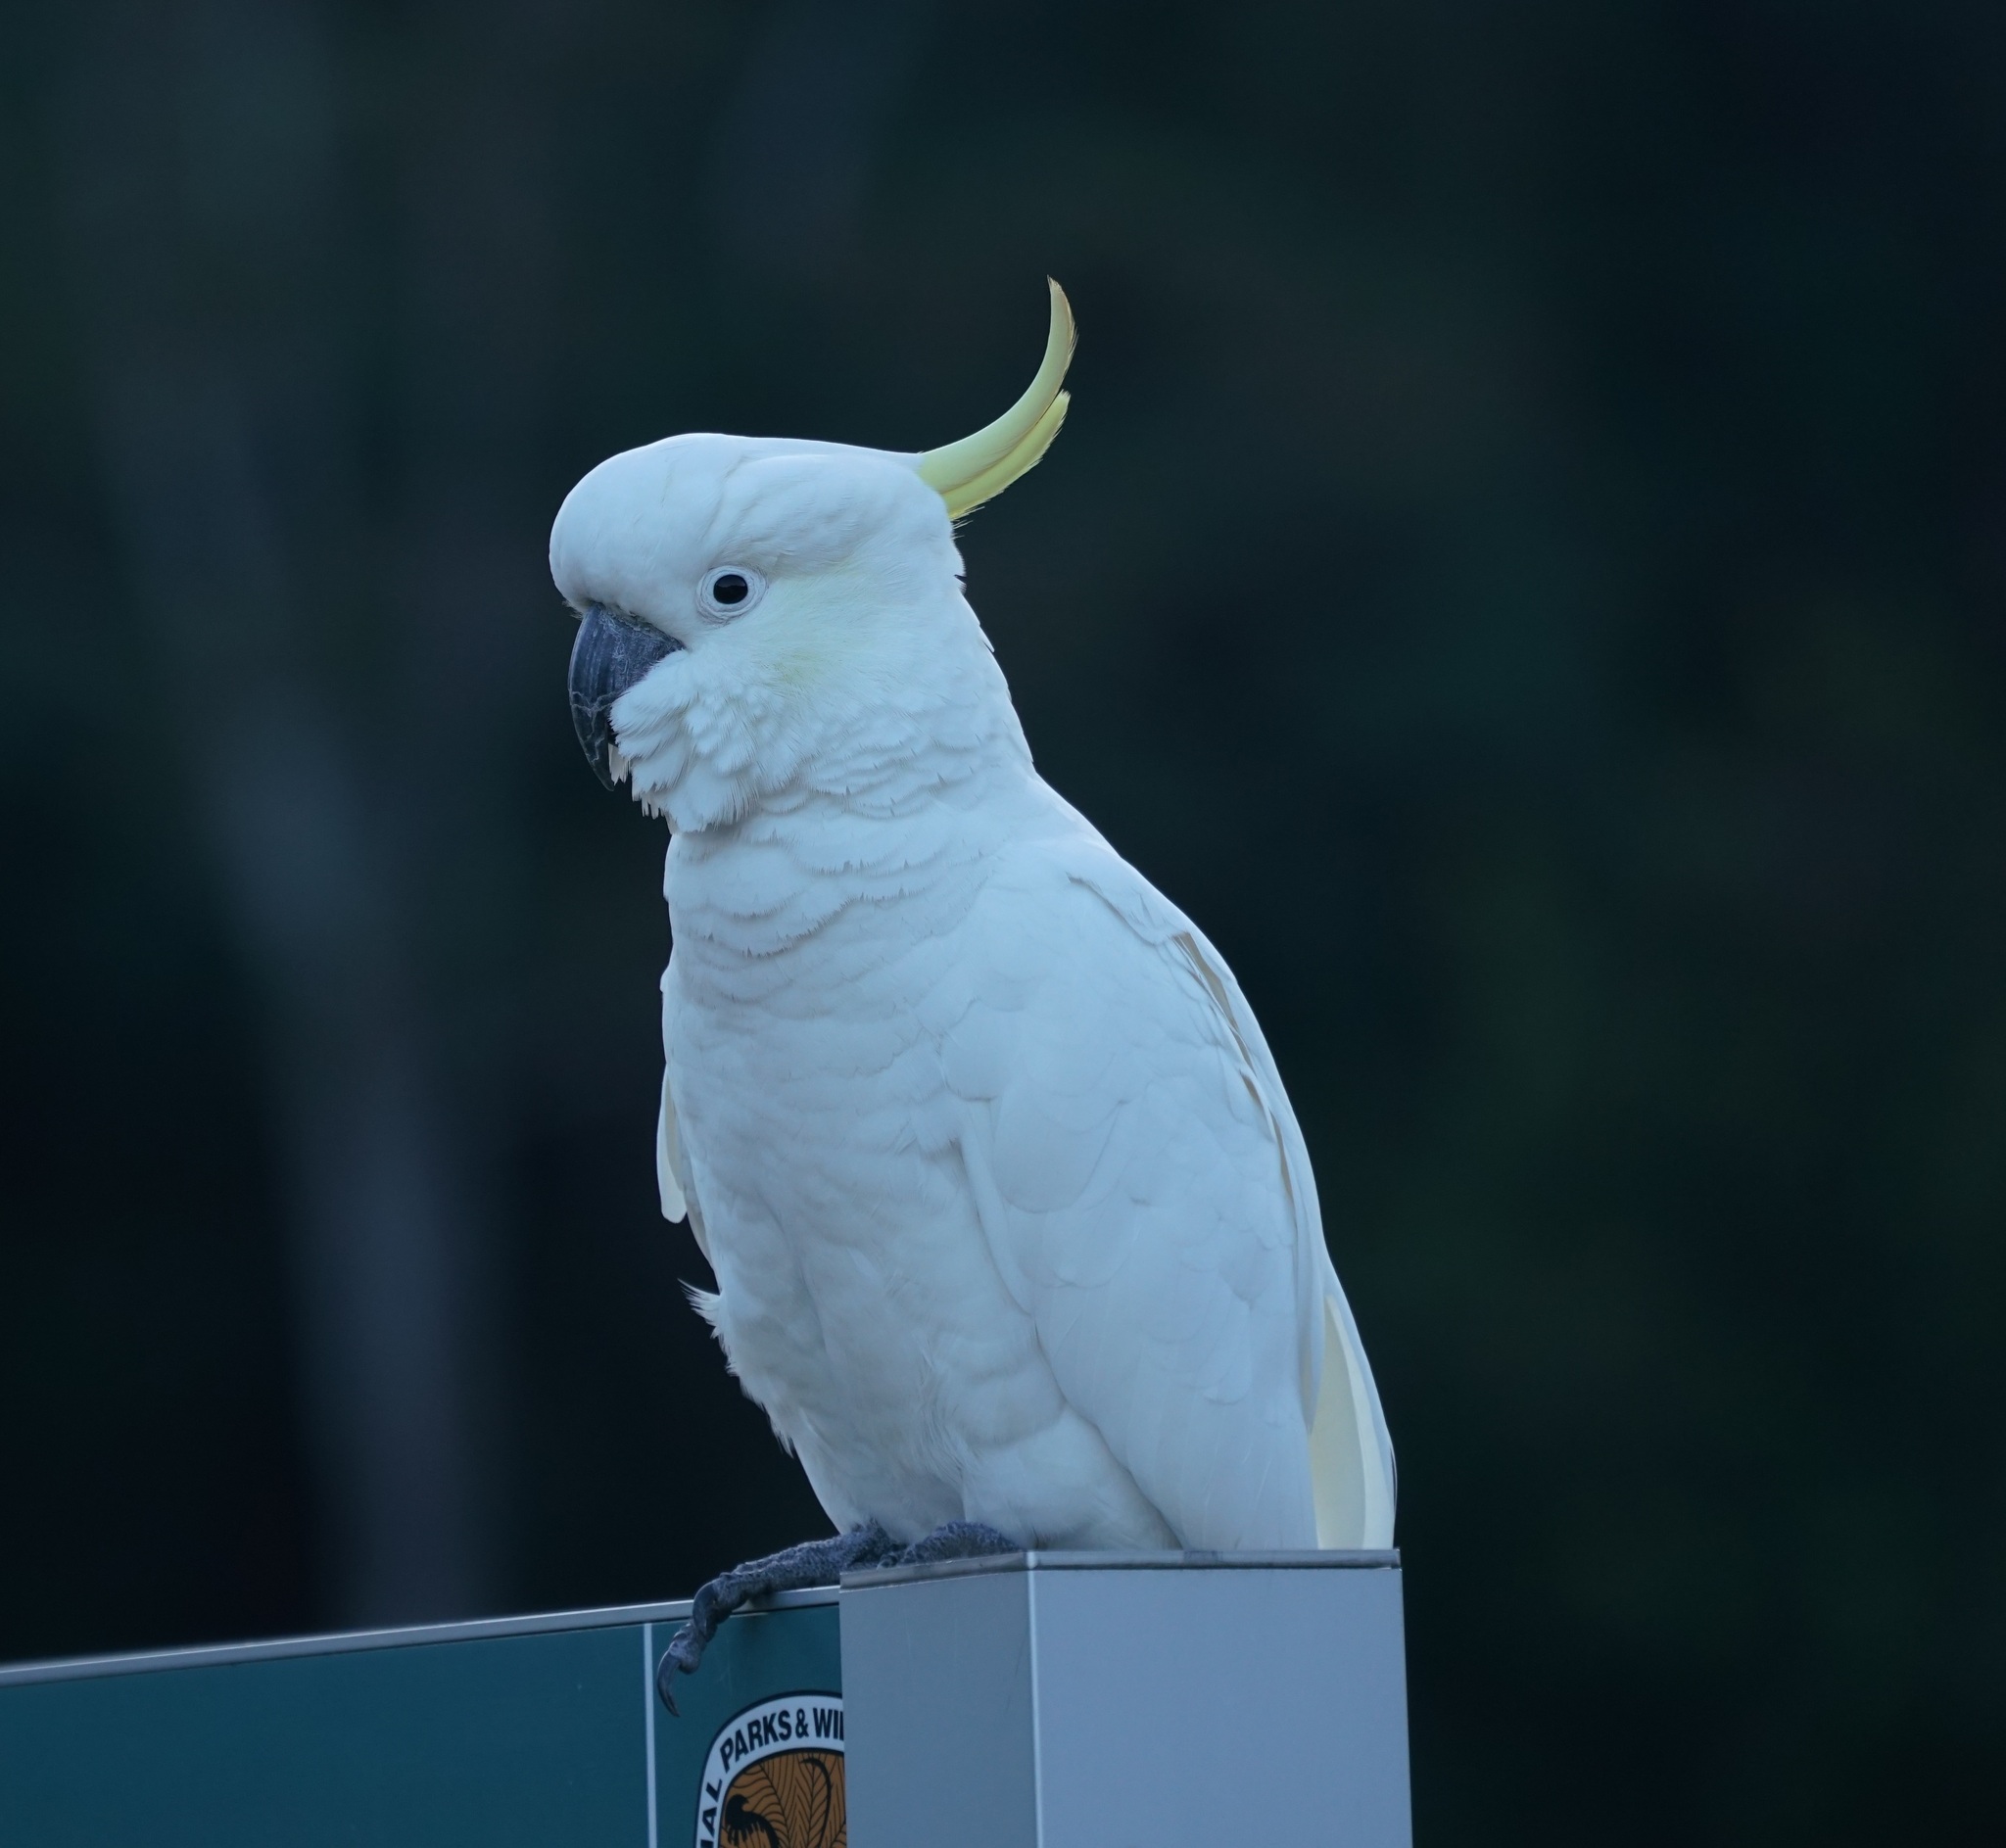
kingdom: Animalia
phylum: Chordata
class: Aves
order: Psittaciformes
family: Psittacidae
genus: Cacatua
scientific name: Cacatua galerita
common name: Sulphur-crested cockatoo
